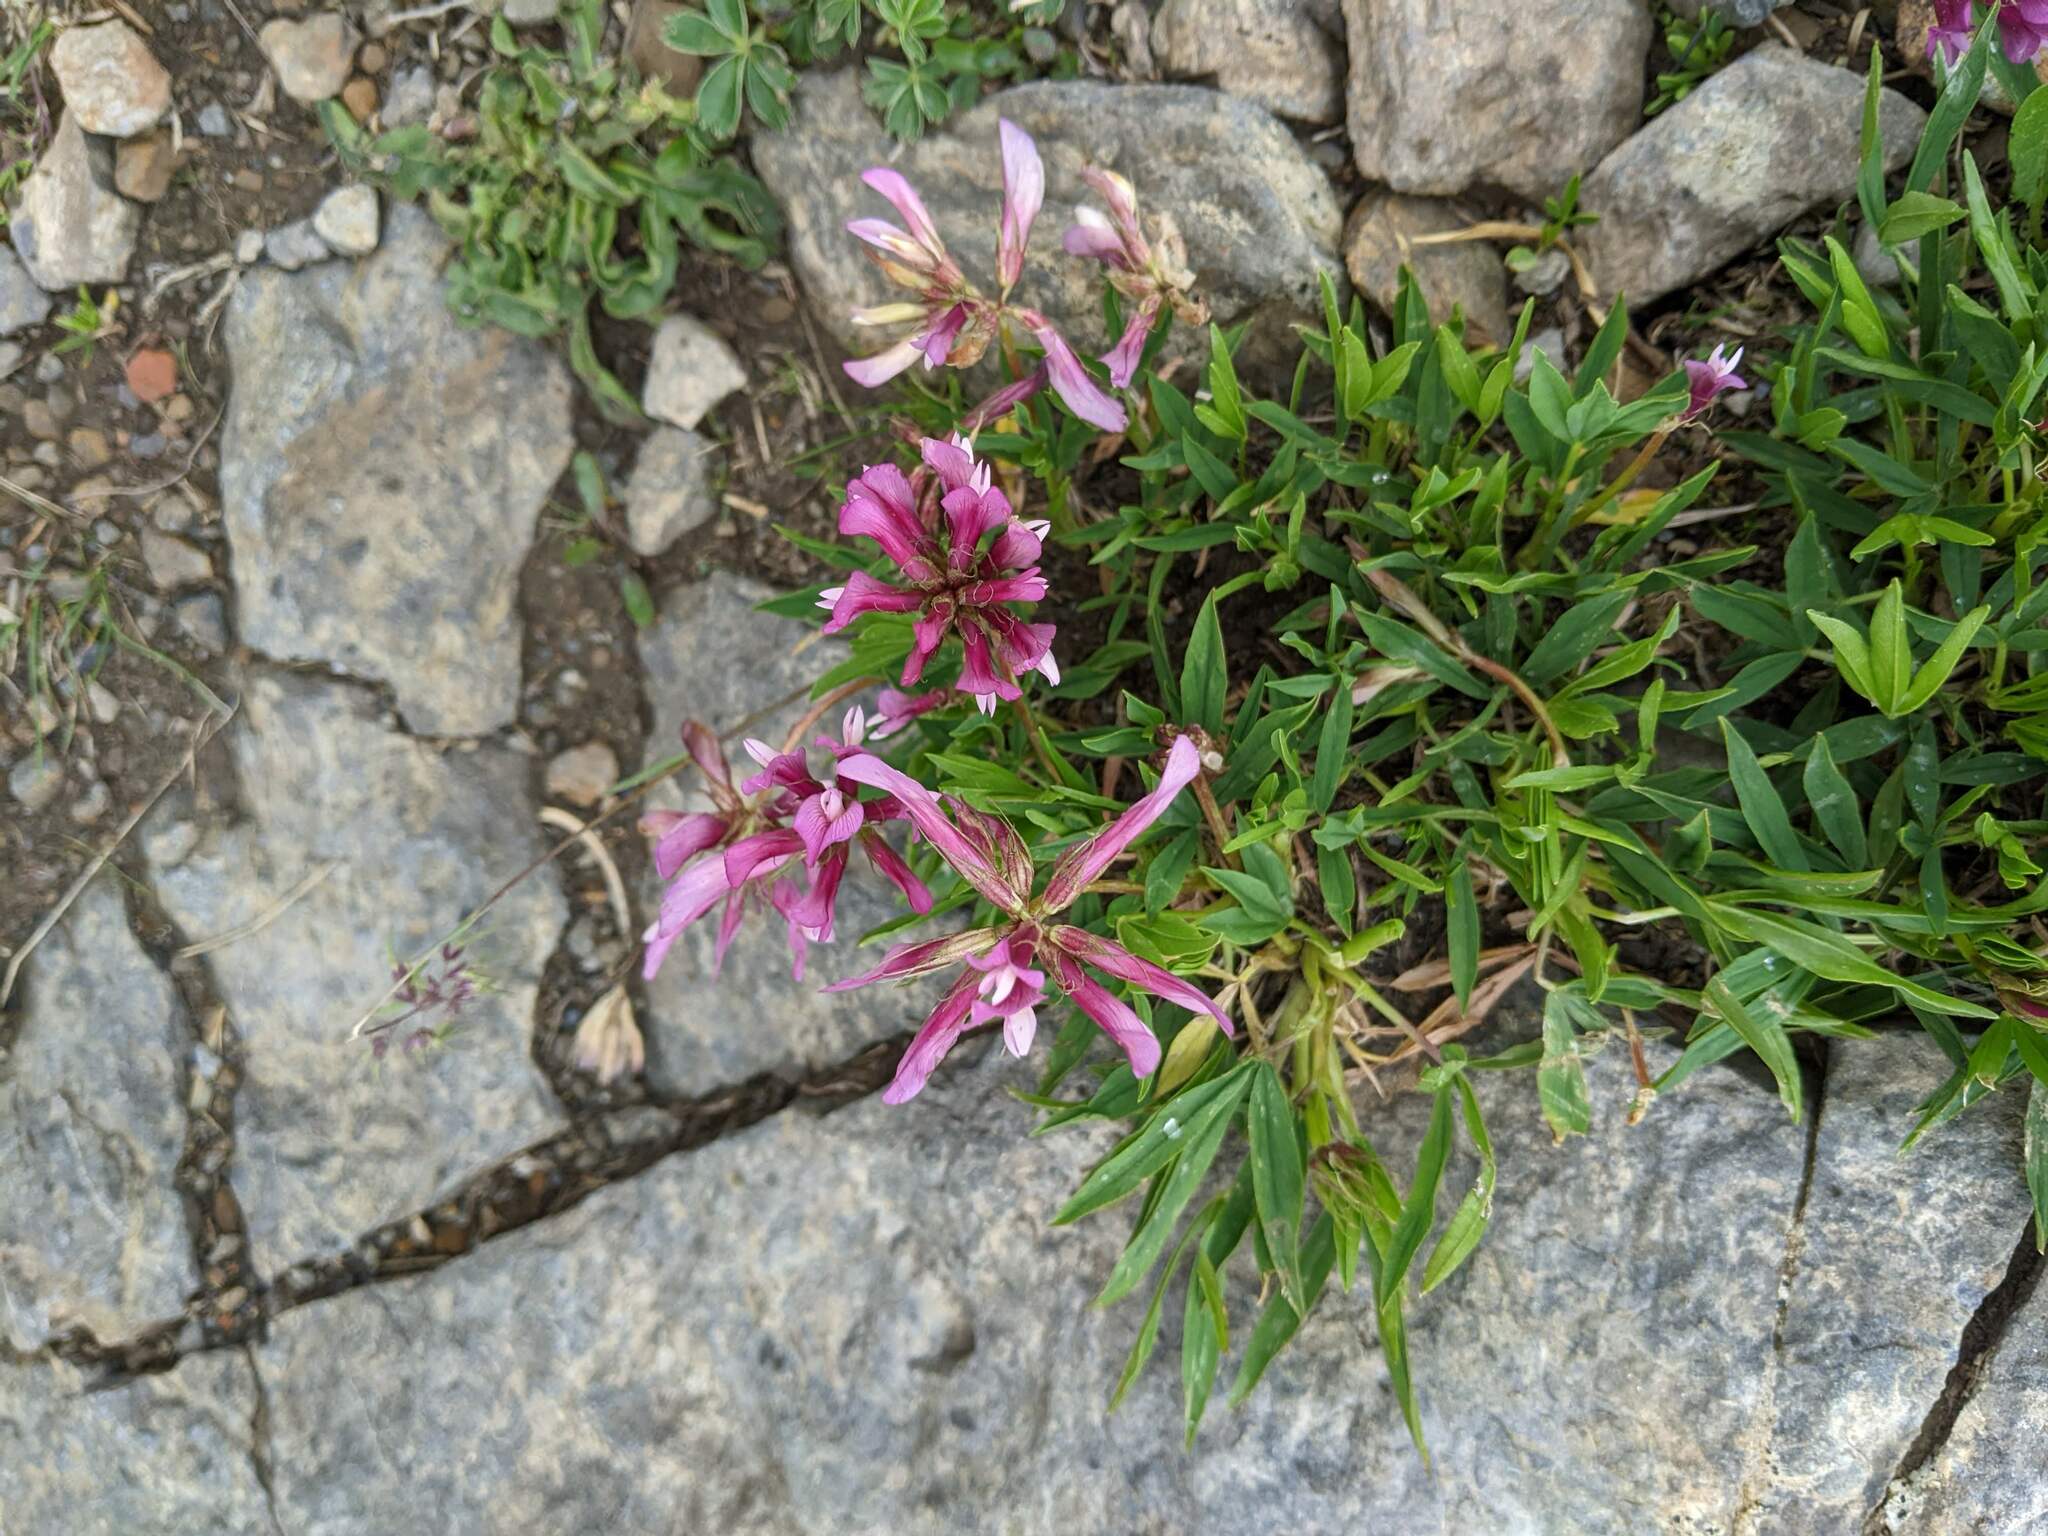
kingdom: Plantae
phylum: Tracheophyta
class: Magnoliopsida
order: Fabales
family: Fabaceae
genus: Trifolium
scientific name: Trifolium alpinum
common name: Alpine clover
